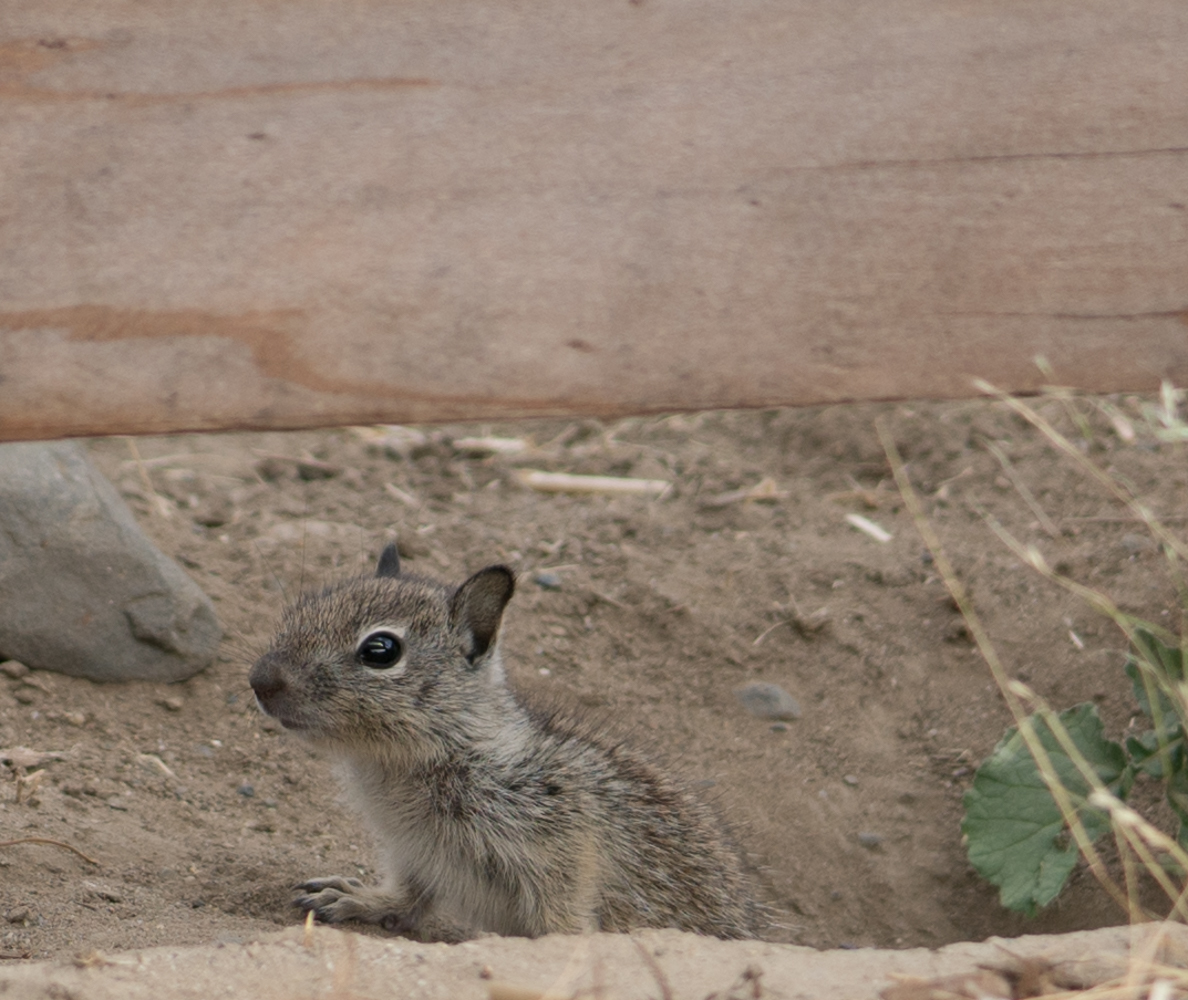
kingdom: Animalia
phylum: Chordata
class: Mammalia
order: Rodentia
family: Sciuridae
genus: Otospermophilus
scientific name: Otospermophilus beecheyi
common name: California ground squirrel
